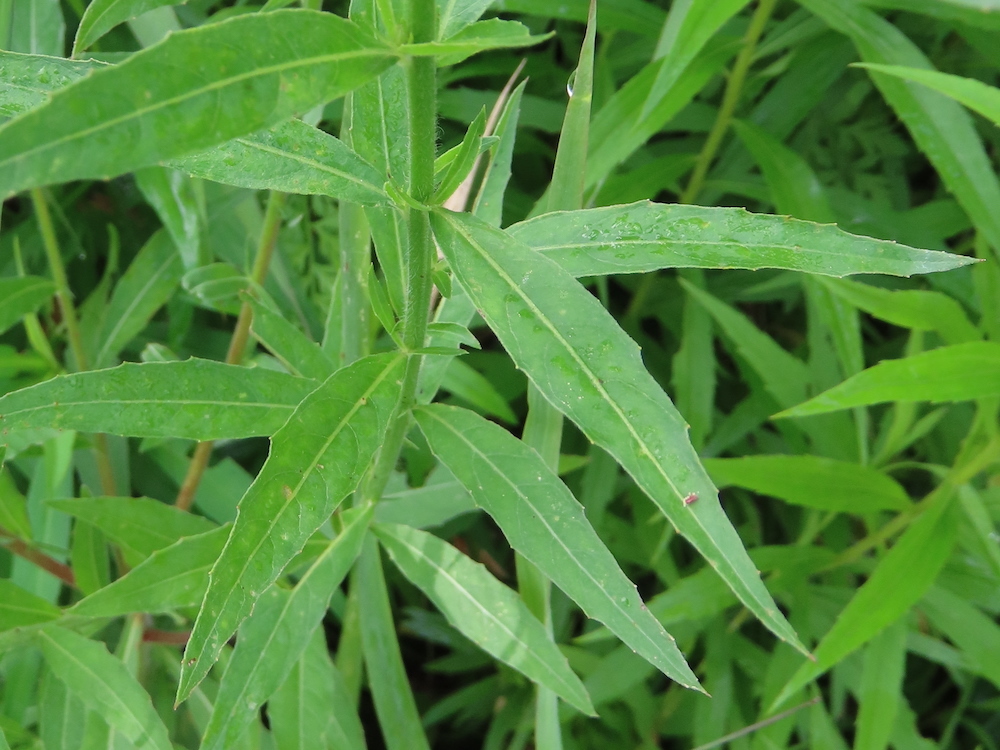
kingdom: Plantae
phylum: Tracheophyta
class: Magnoliopsida
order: Myrtales
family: Onagraceae
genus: Oenothera
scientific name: Oenothera gaura
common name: Biennial beeblossom
